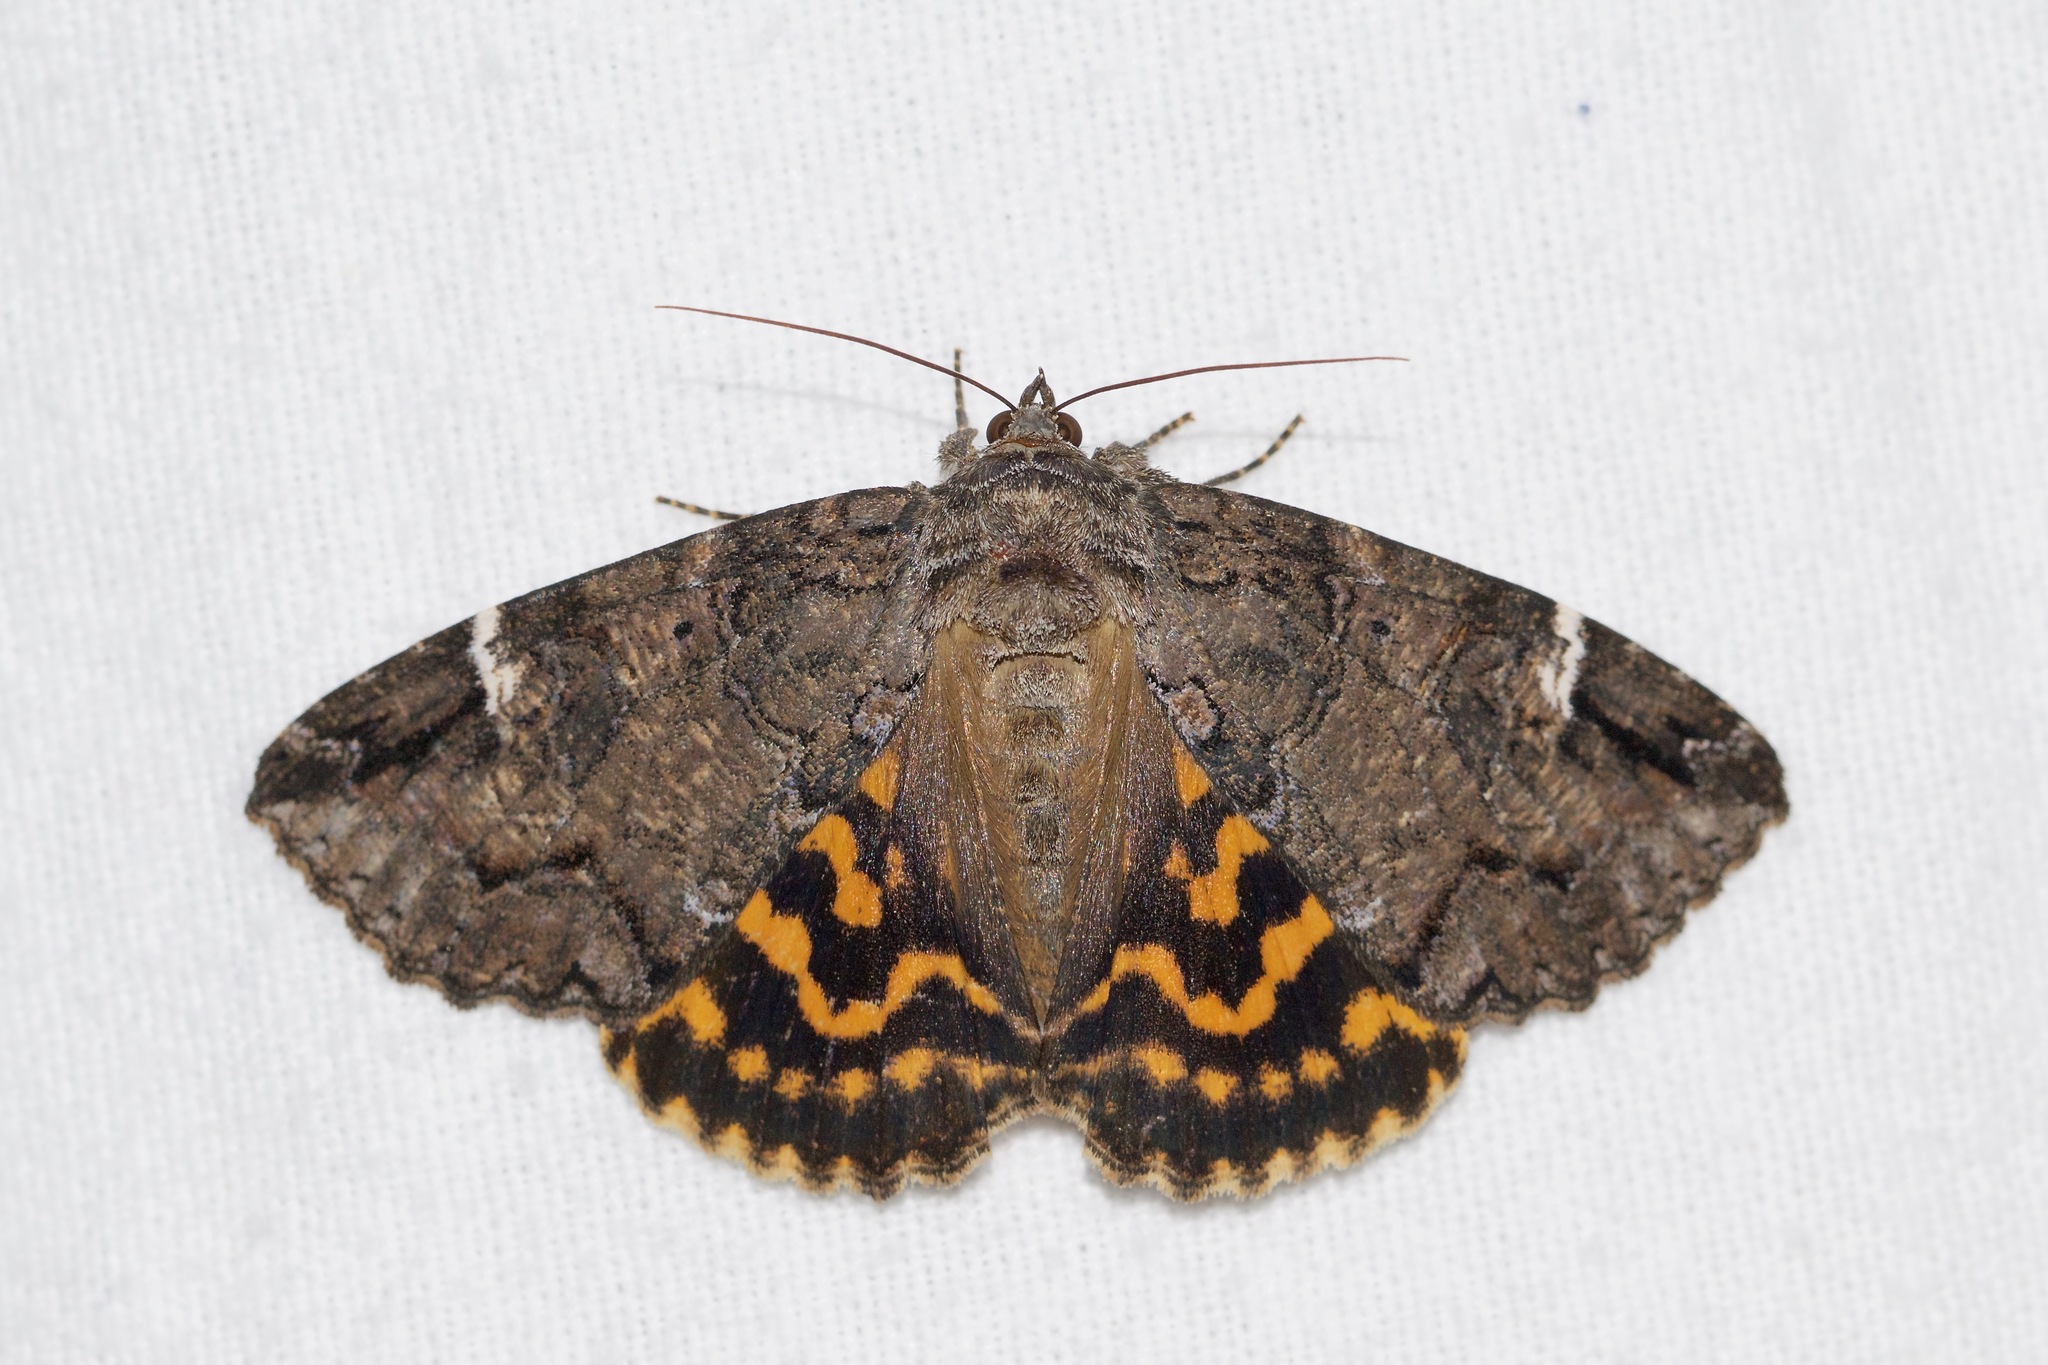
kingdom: Animalia
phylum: Arthropoda
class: Insecta
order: Lepidoptera
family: Erebidae
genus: Euparthenos
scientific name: Euparthenos nubilis
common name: Locust underwing
